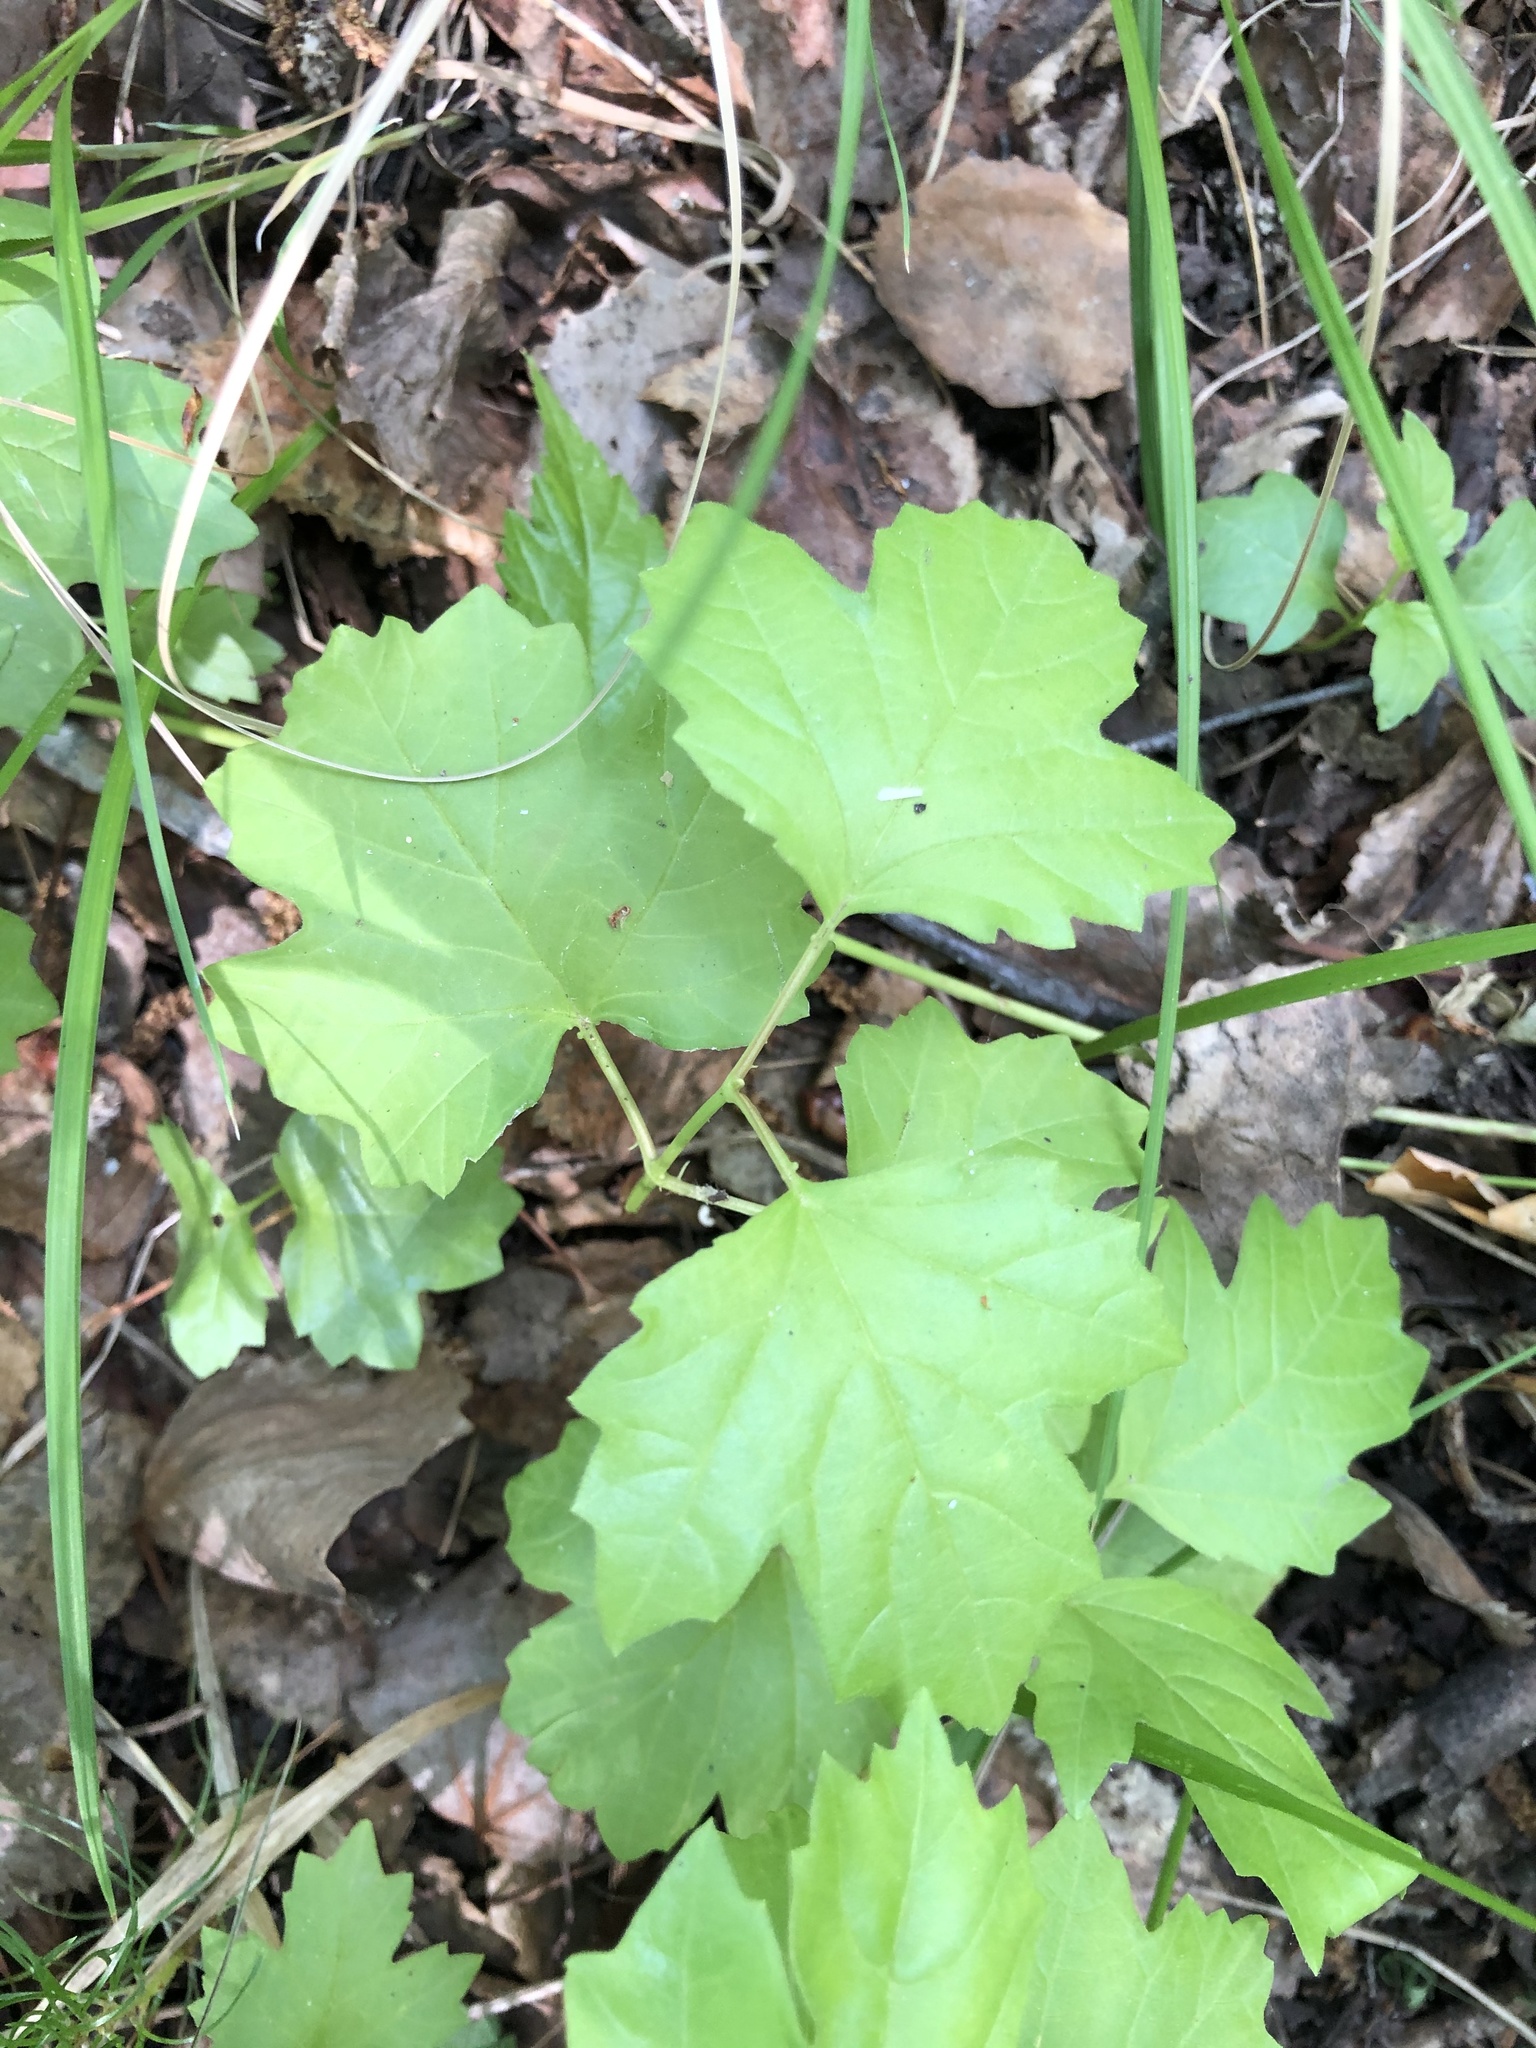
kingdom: Plantae
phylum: Tracheophyta
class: Magnoliopsida
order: Dipsacales
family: Viburnaceae
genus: Viburnum
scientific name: Viburnum opulus
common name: Guelder-rose
